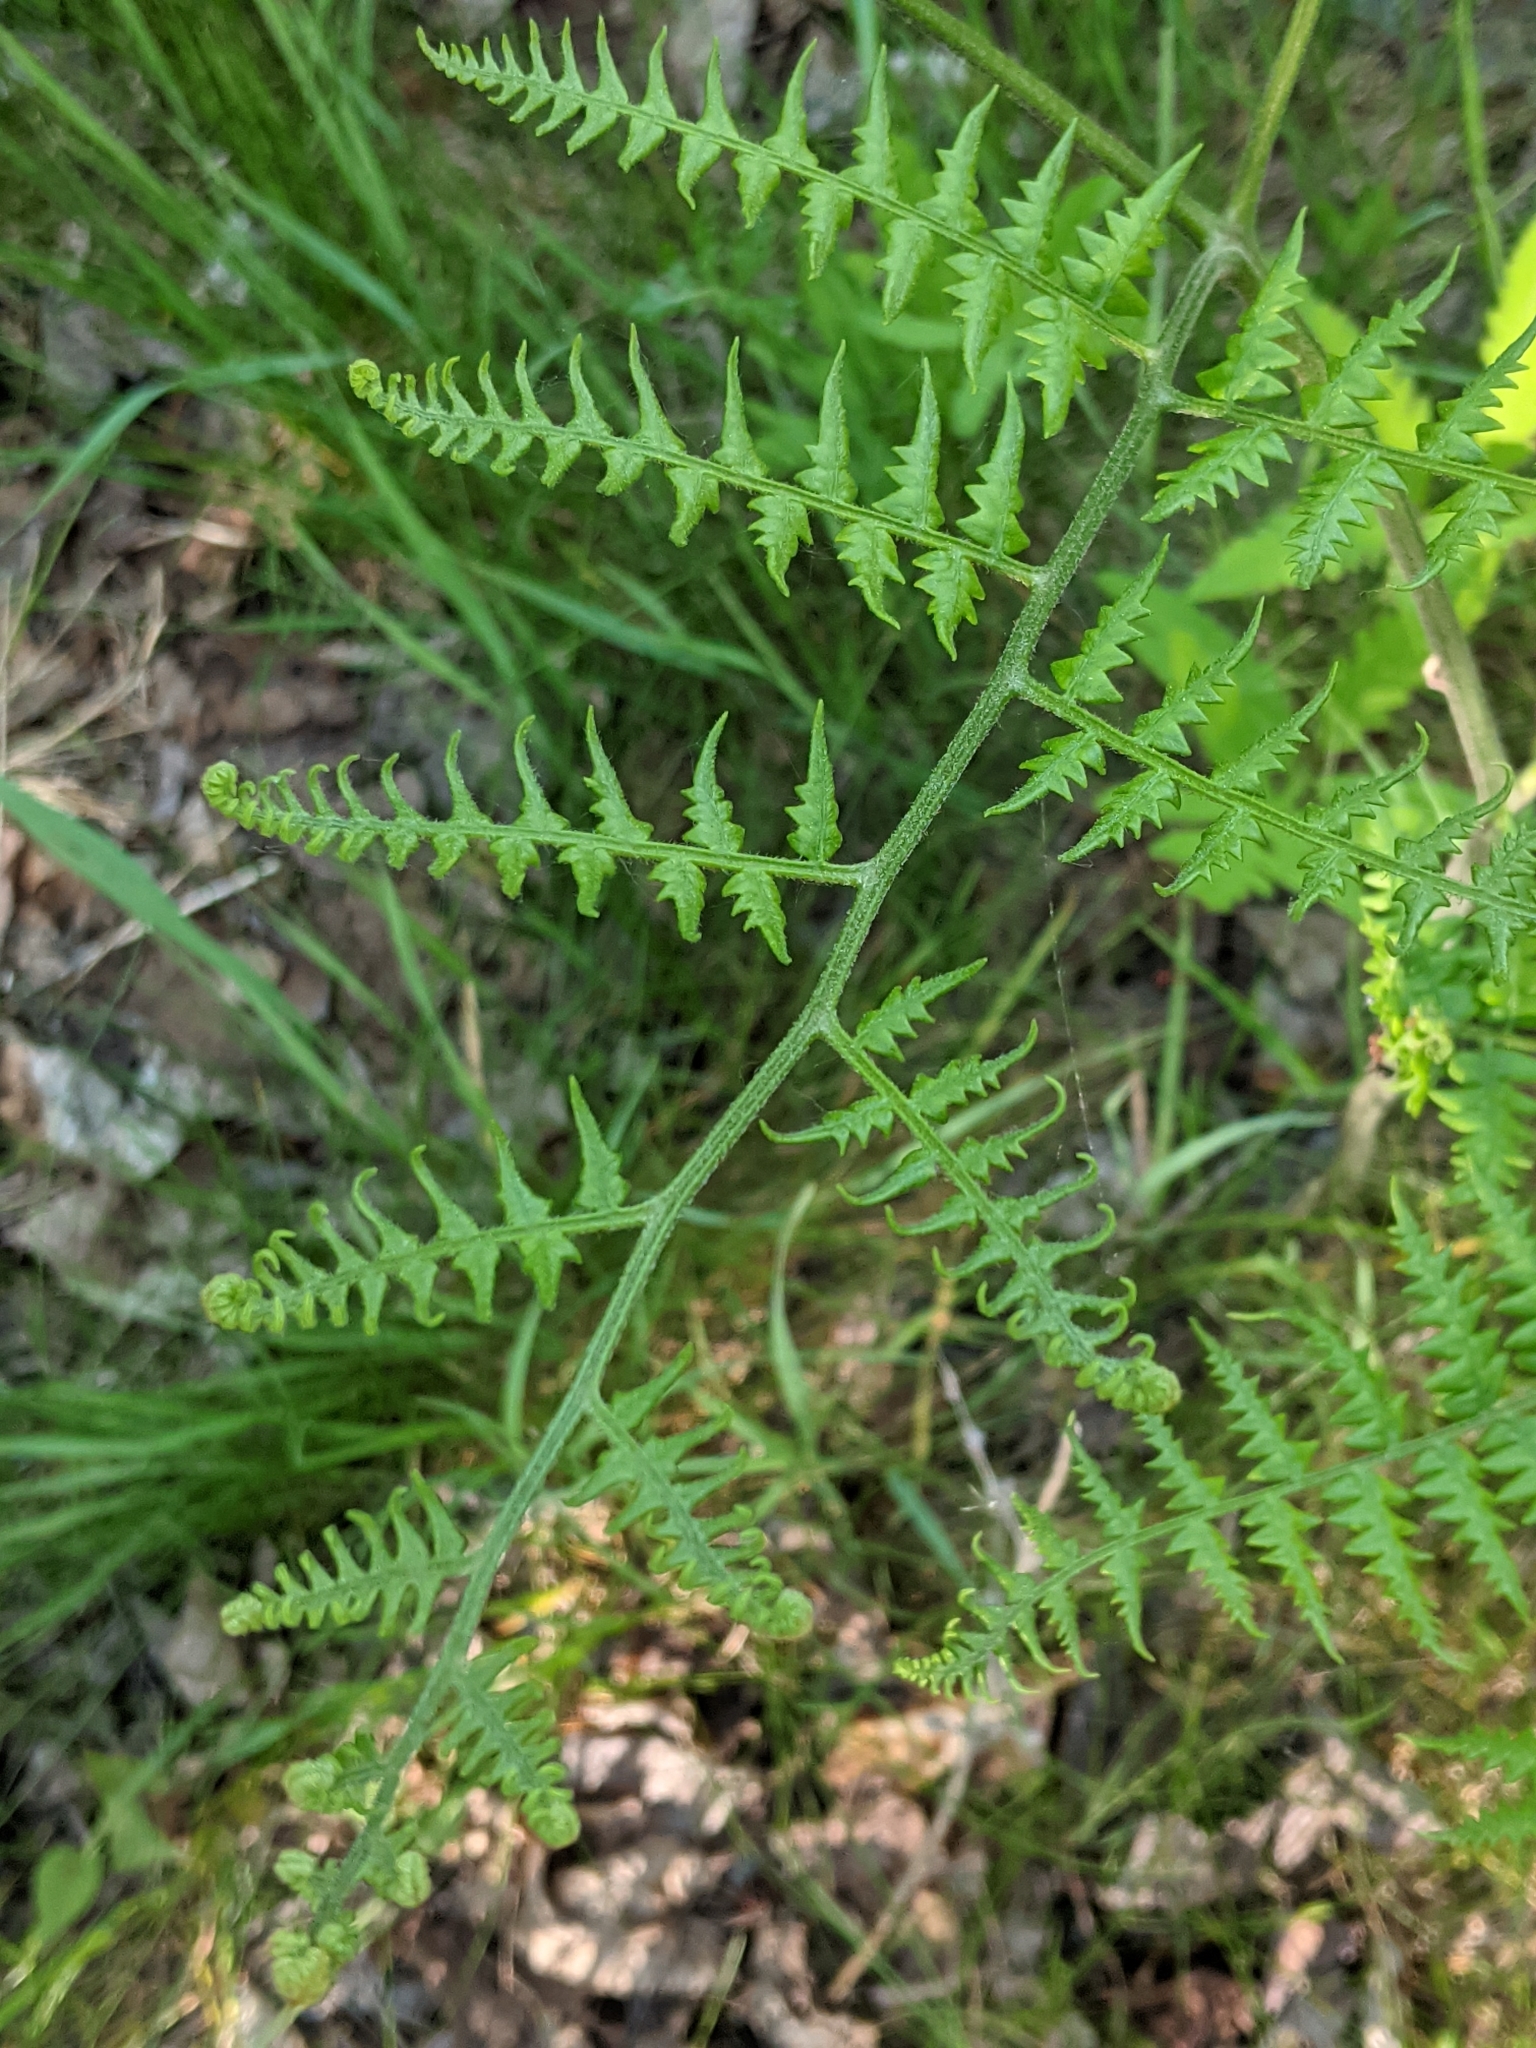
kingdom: Plantae
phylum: Tracheophyta
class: Polypodiopsida
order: Polypodiales
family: Dennstaedtiaceae
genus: Pteridium
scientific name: Pteridium aquilinum
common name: Bracken
